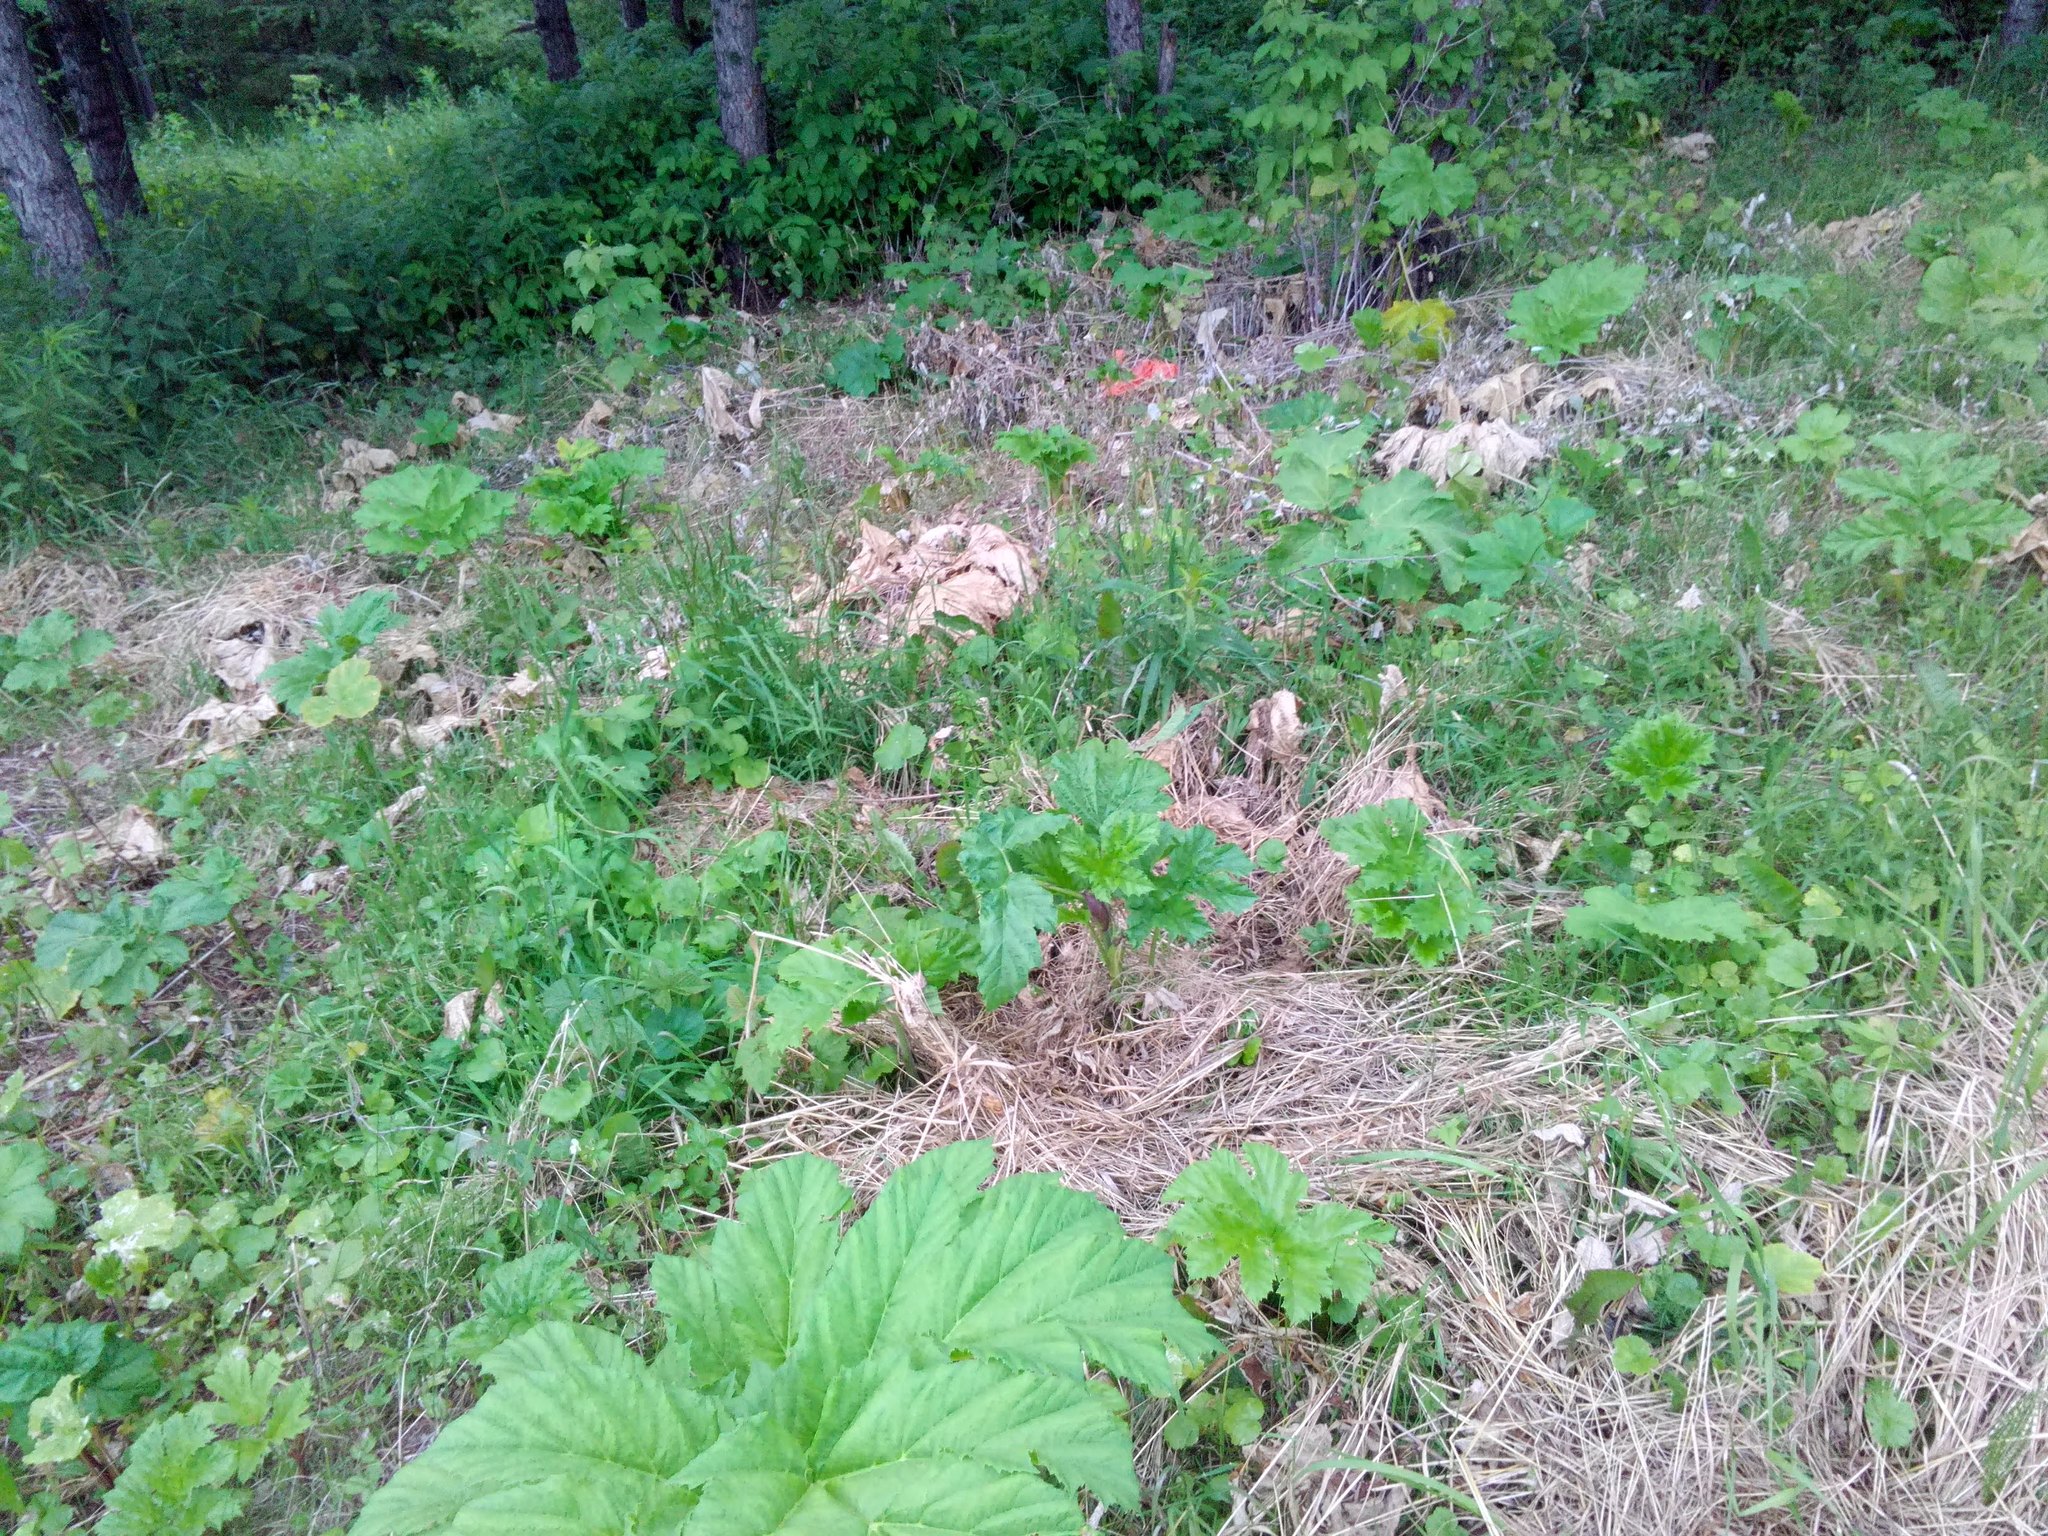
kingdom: Plantae
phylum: Tracheophyta
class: Magnoliopsida
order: Apiales
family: Apiaceae
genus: Heracleum
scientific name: Heracleum sosnowskyi
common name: Sosnowsky's hogweed
